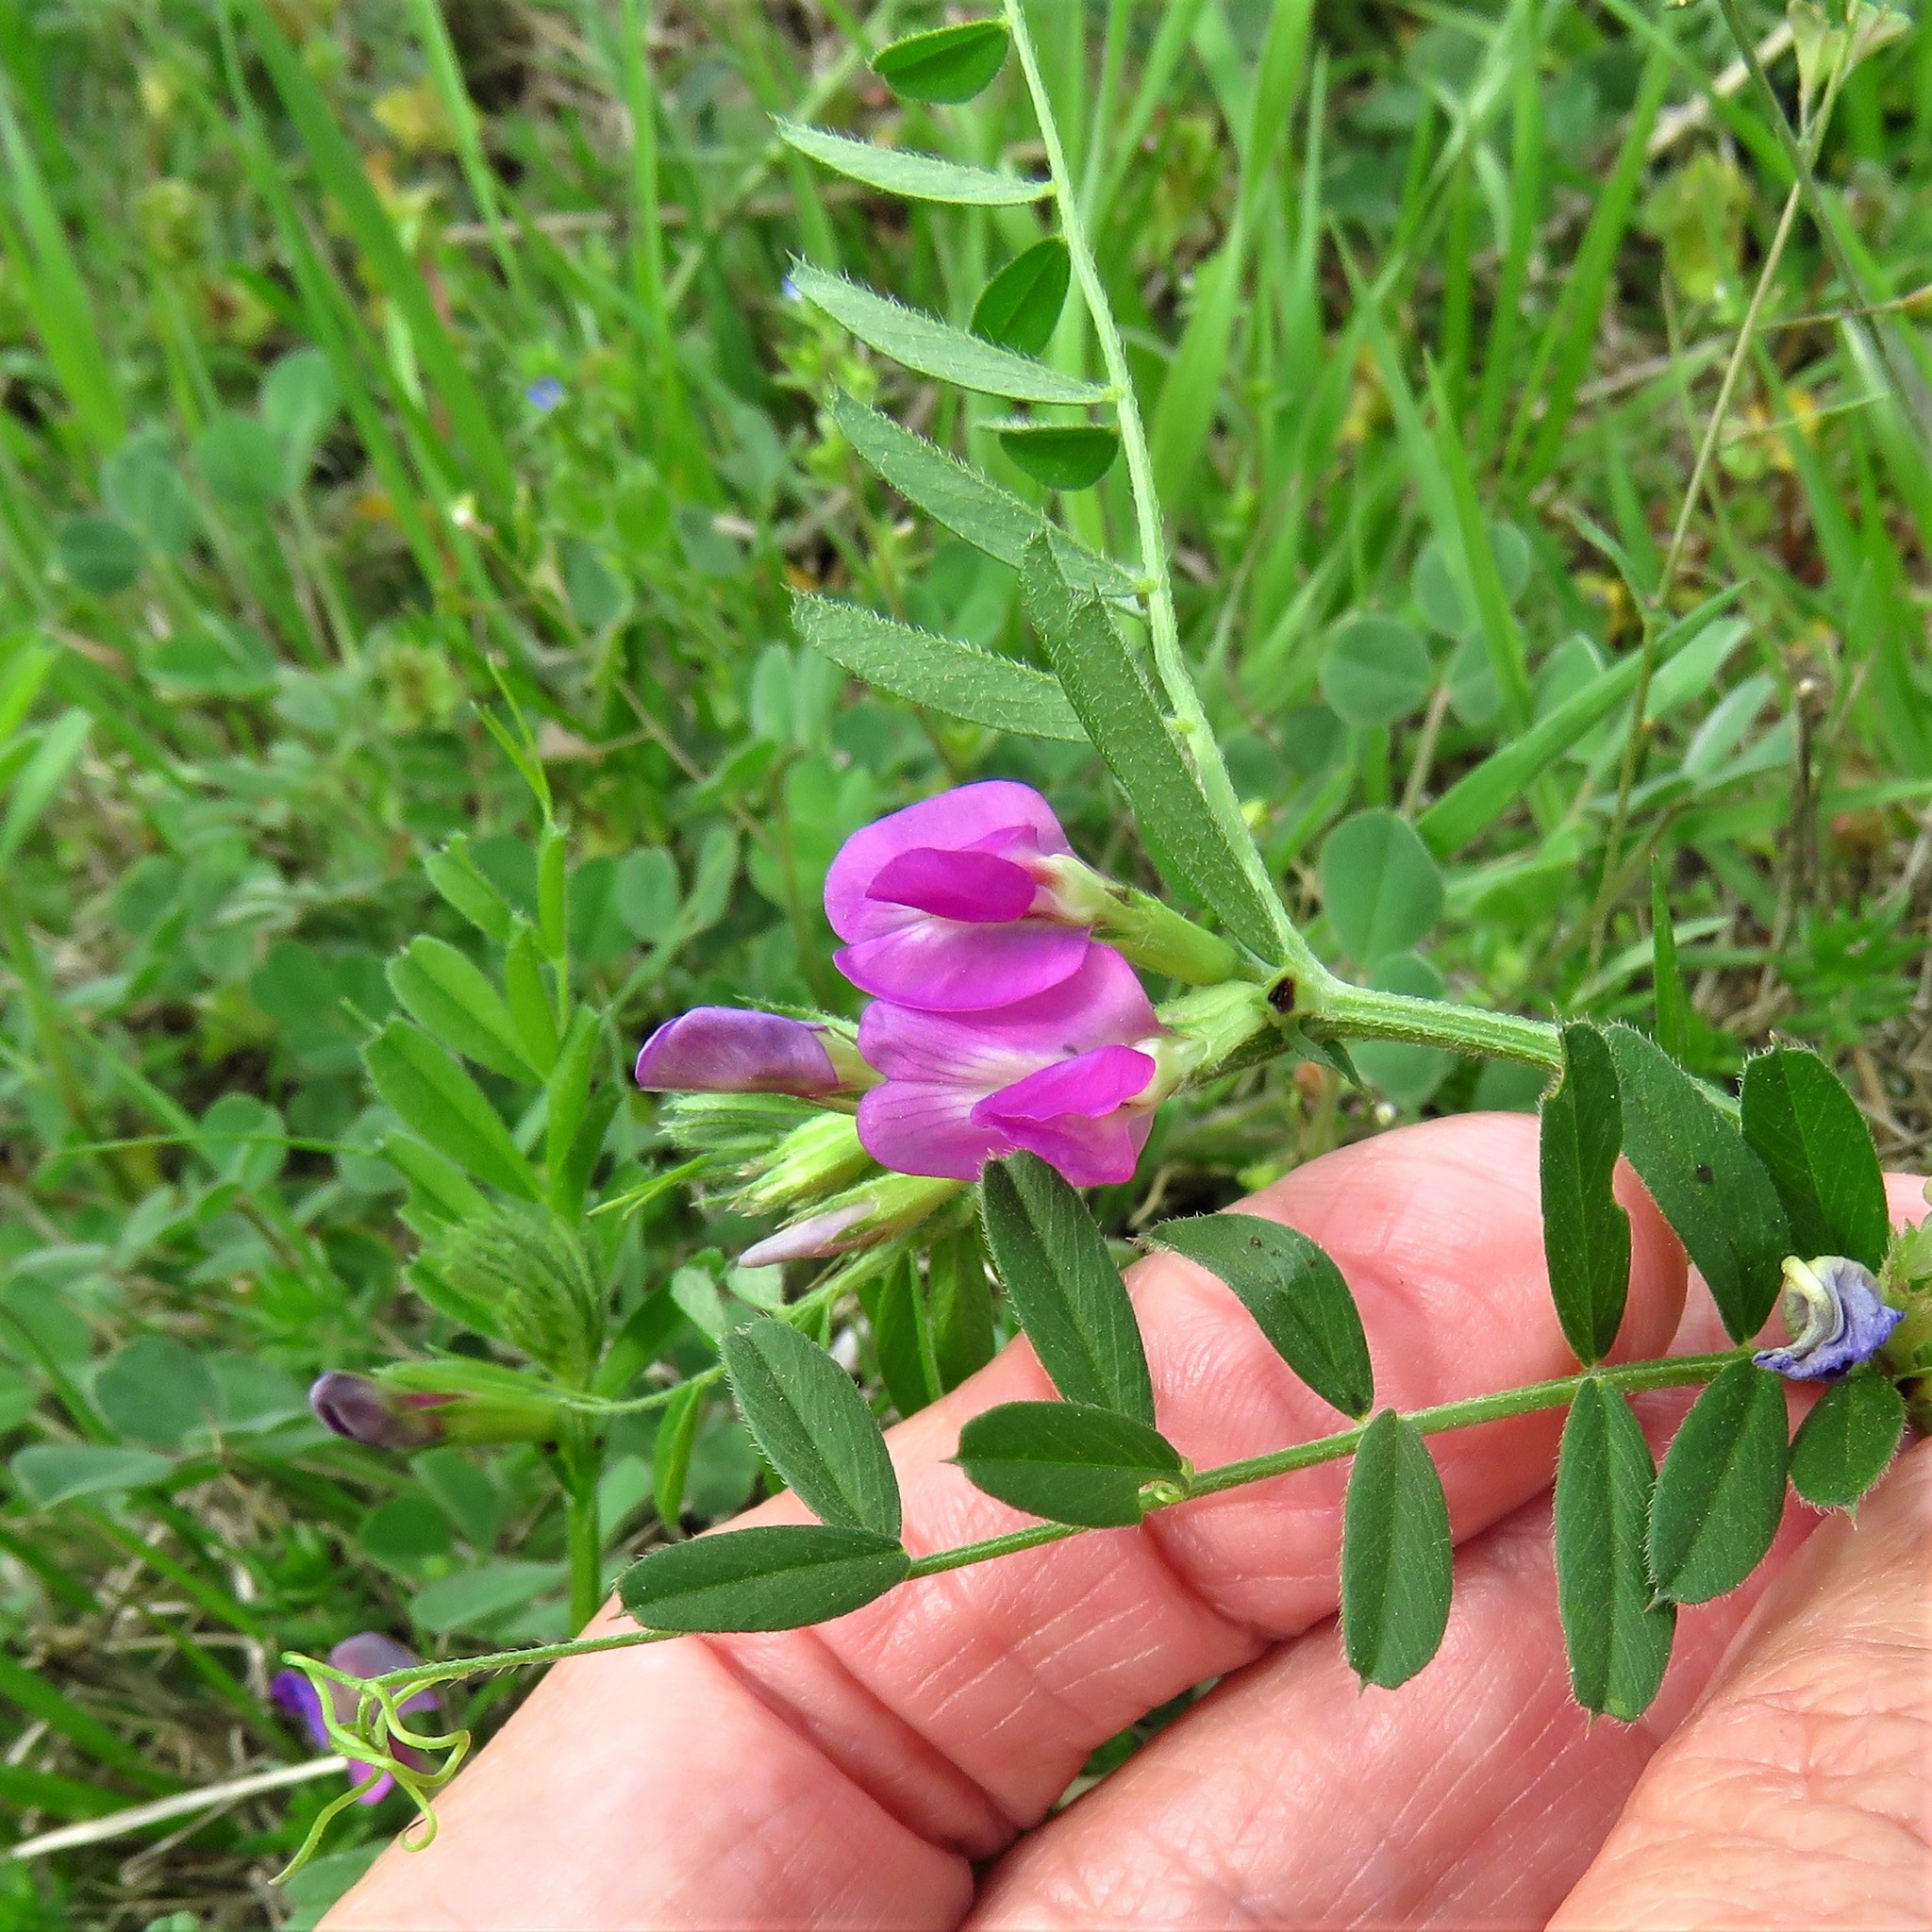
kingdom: Plantae
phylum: Tracheophyta
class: Magnoliopsida
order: Fabales
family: Fabaceae
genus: Vicia
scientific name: Vicia sativa
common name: Garden vetch
